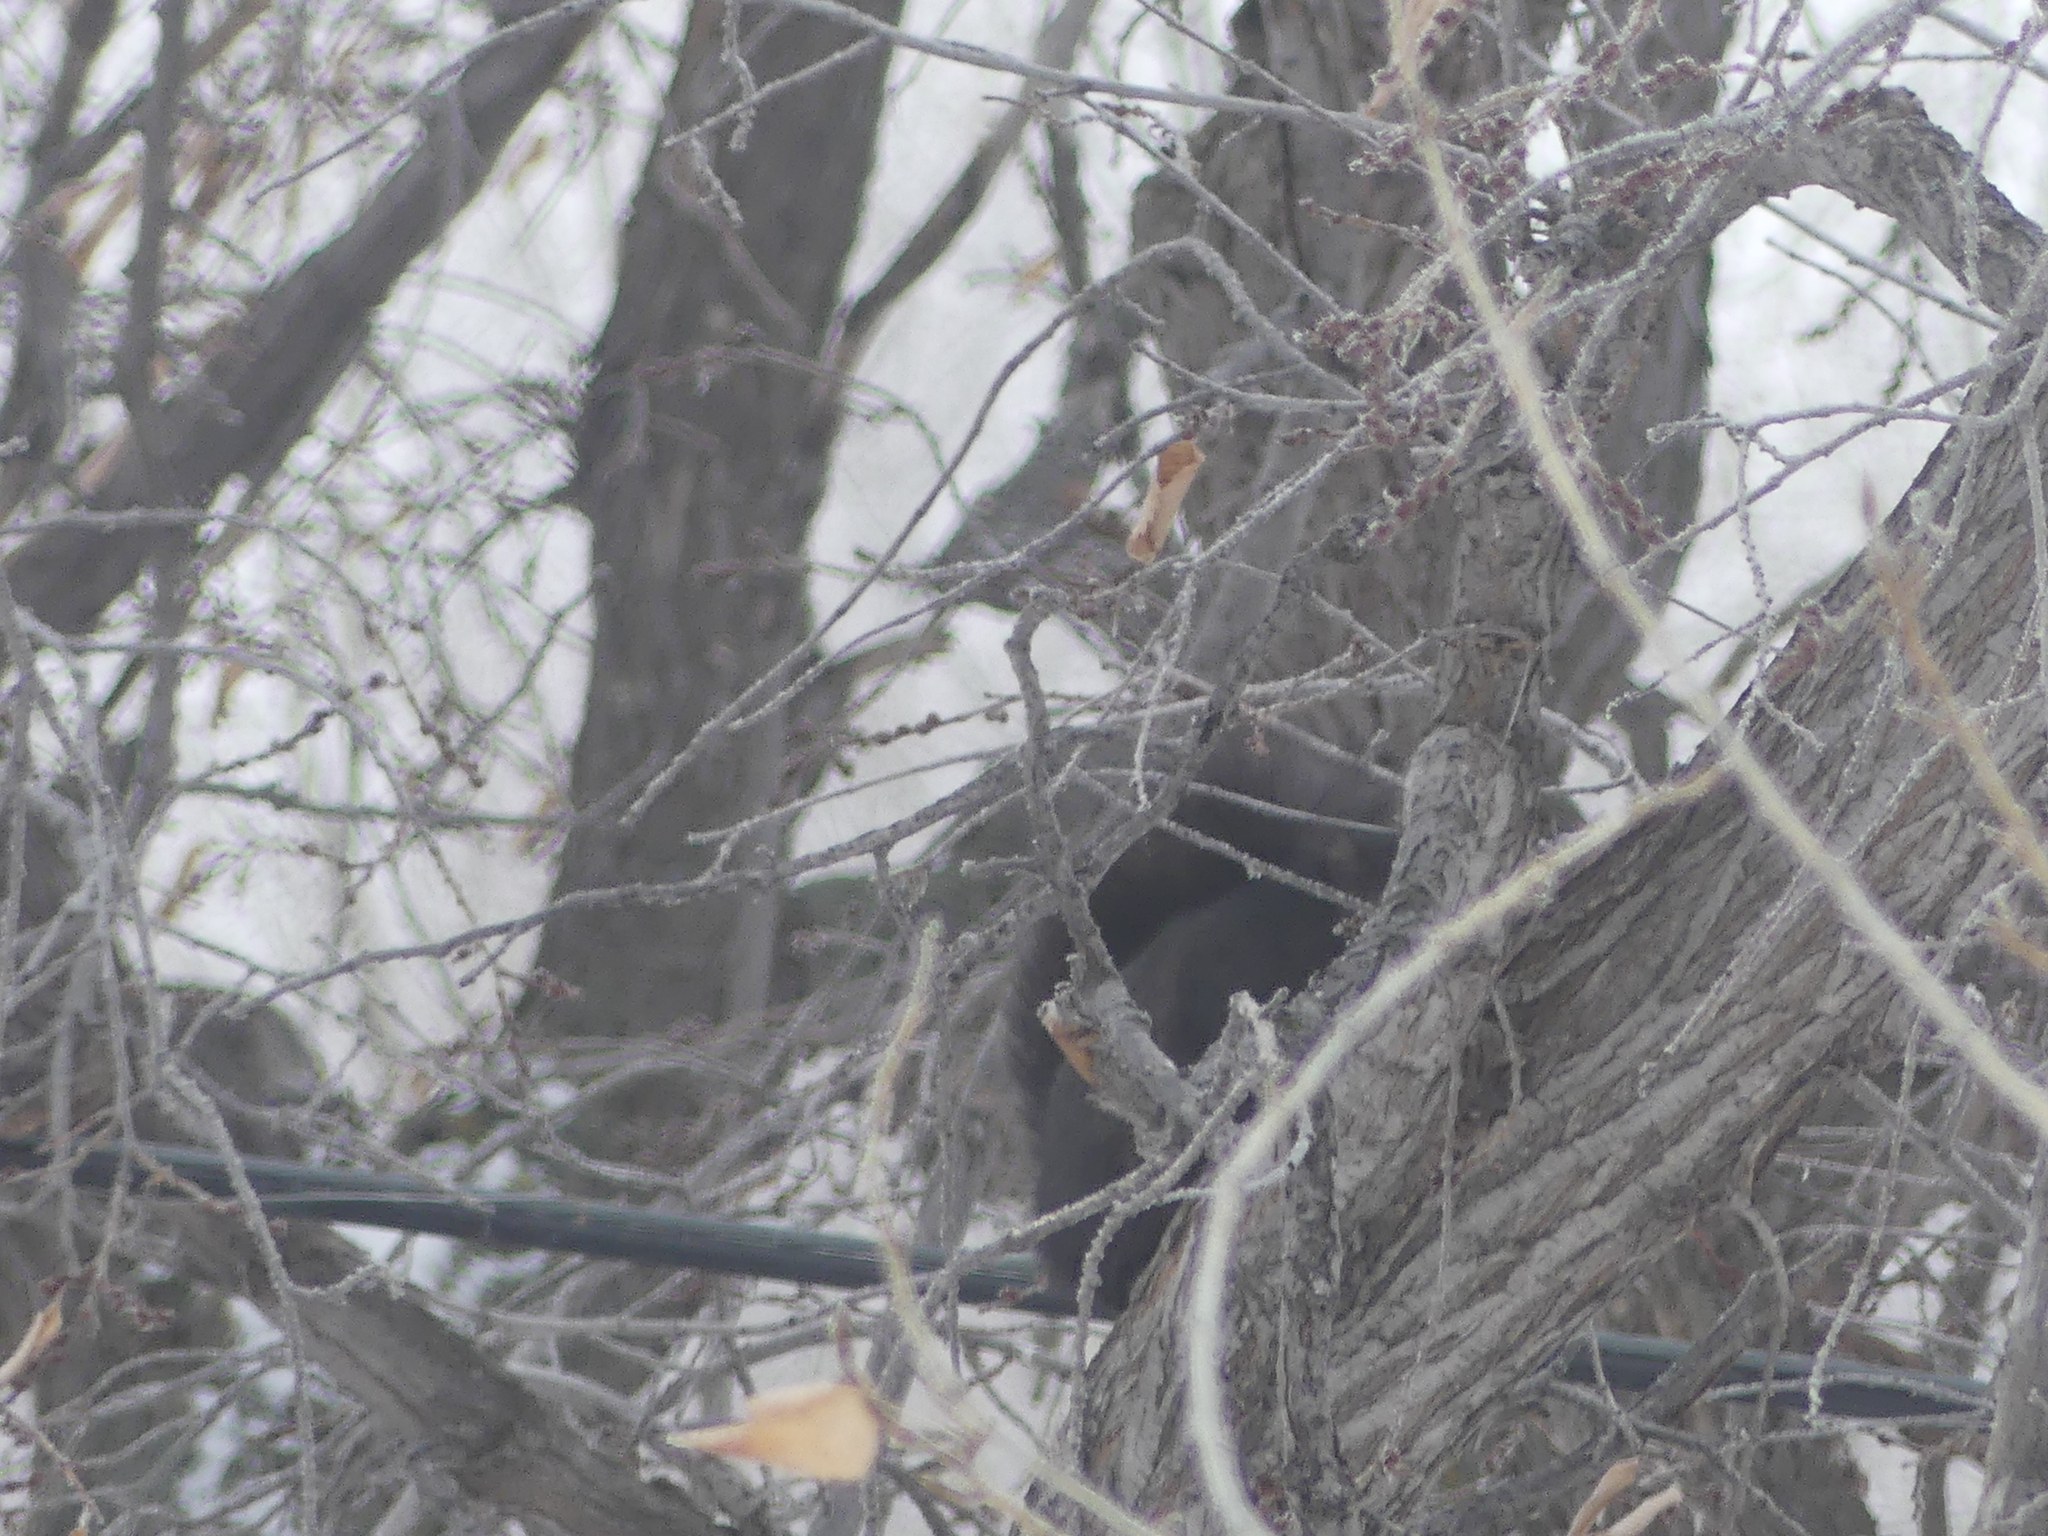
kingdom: Animalia
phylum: Chordata
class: Mammalia
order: Rodentia
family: Sciuridae
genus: Sciurus
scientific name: Sciurus carolinensis
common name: Eastern gray squirrel
